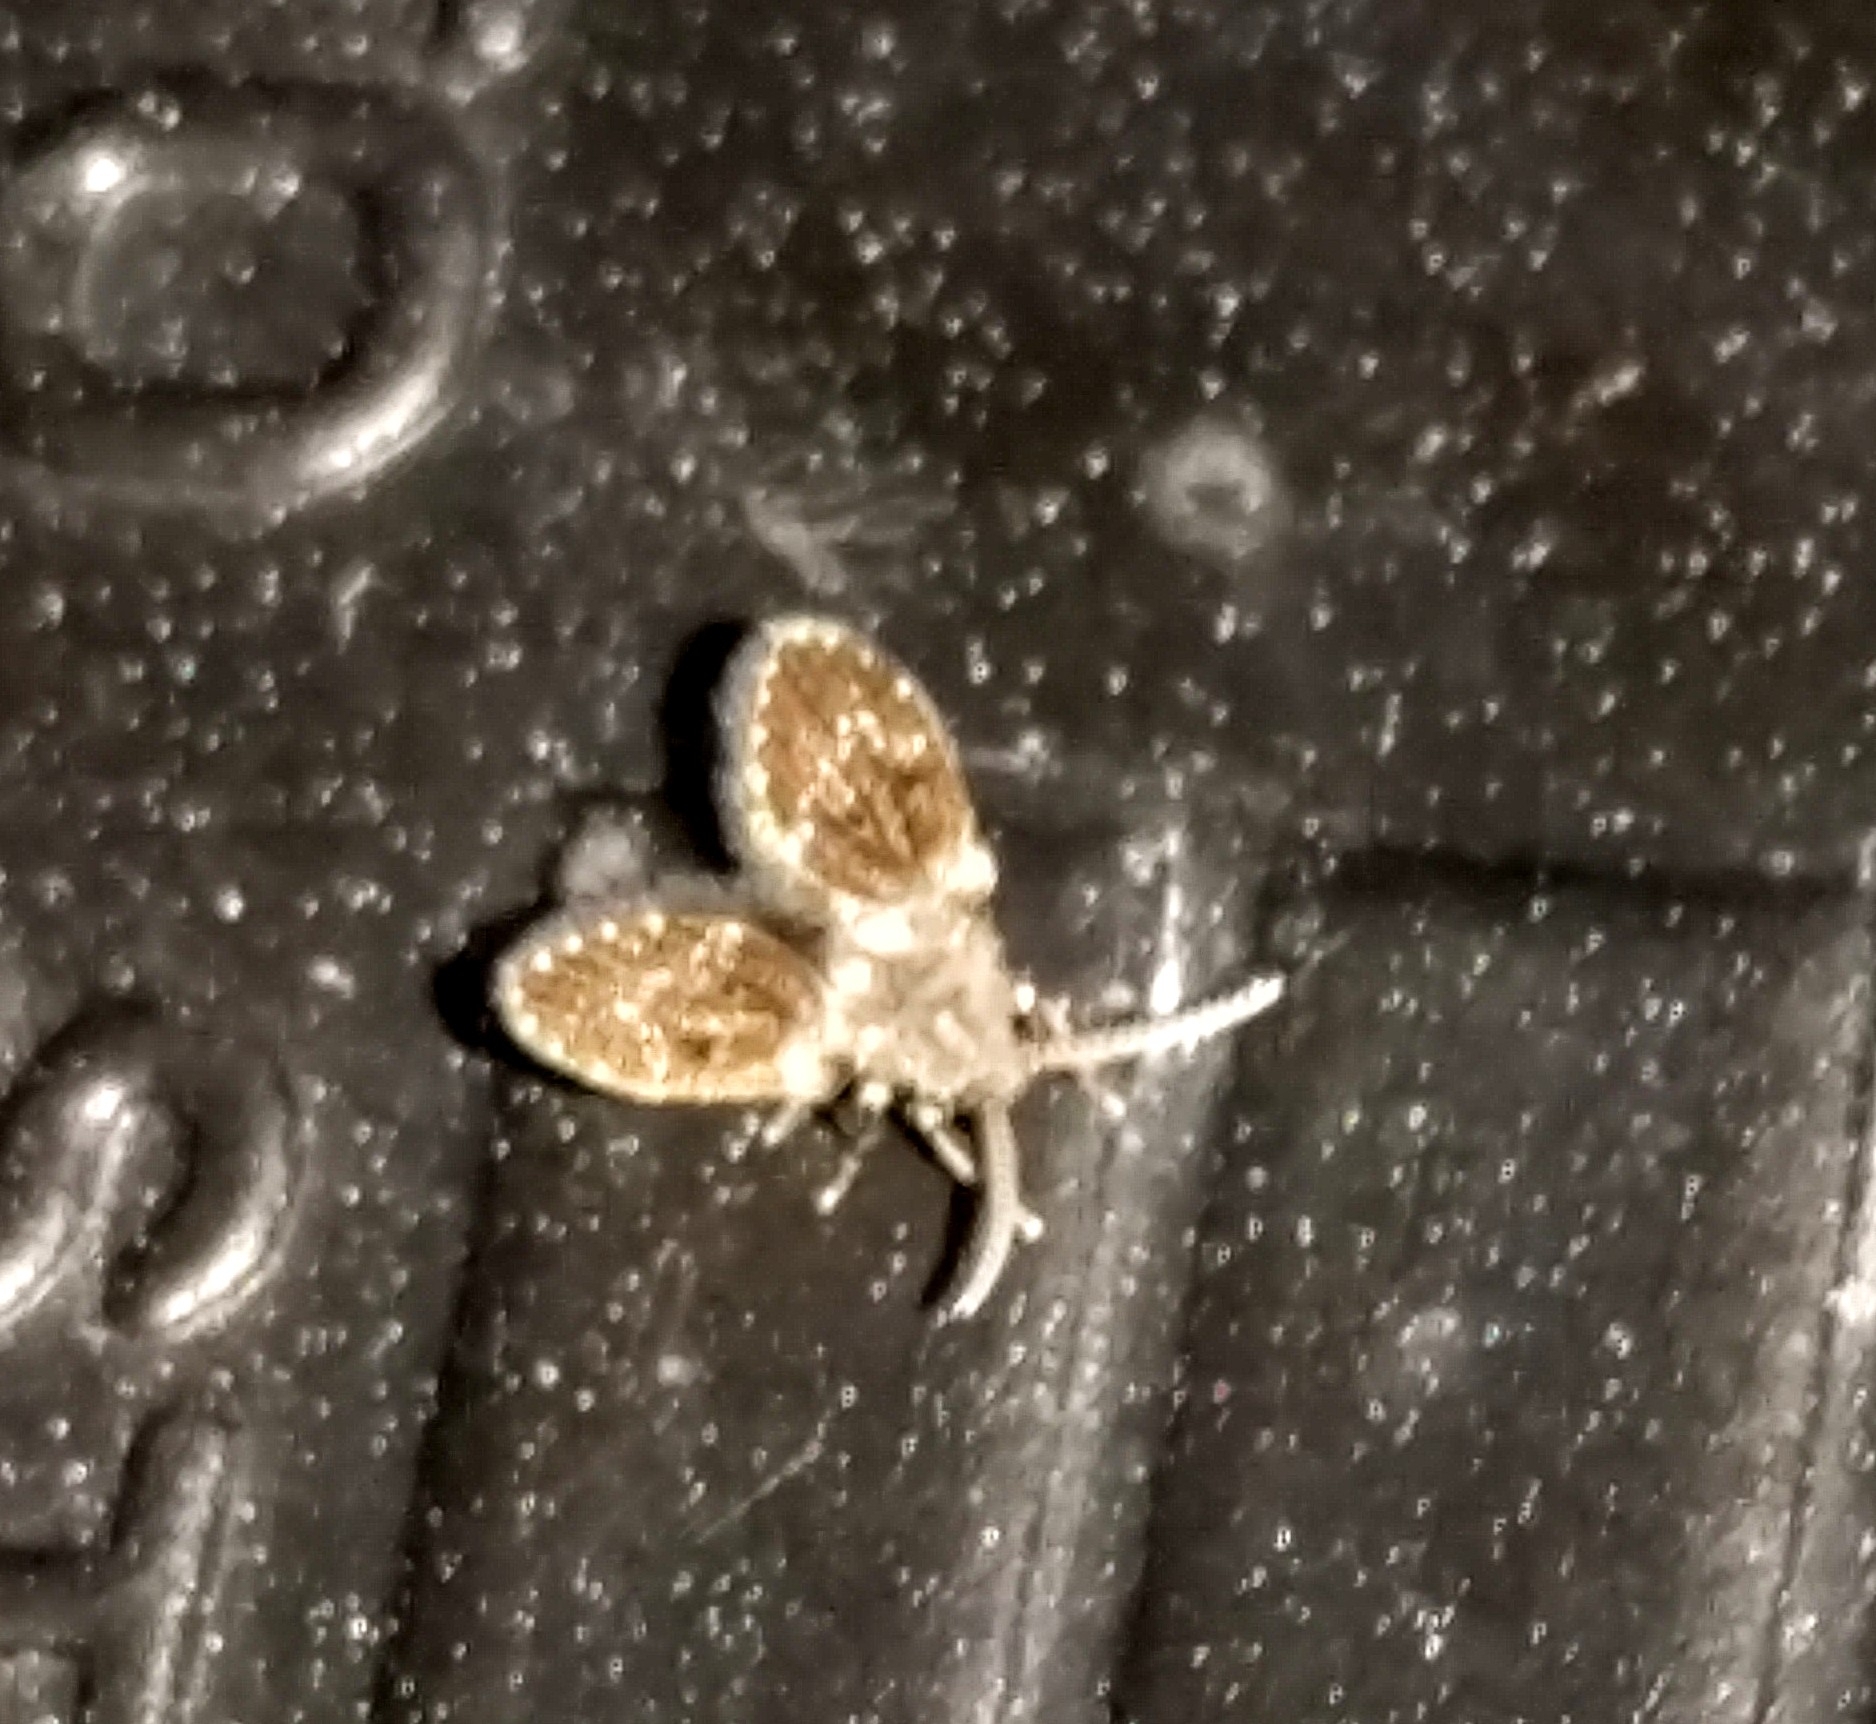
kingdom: Animalia
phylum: Arthropoda
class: Insecta
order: Diptera
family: Psychodidae
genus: Clogmia
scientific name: Clogmia albipunctatus
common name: White-spotted moth fly
